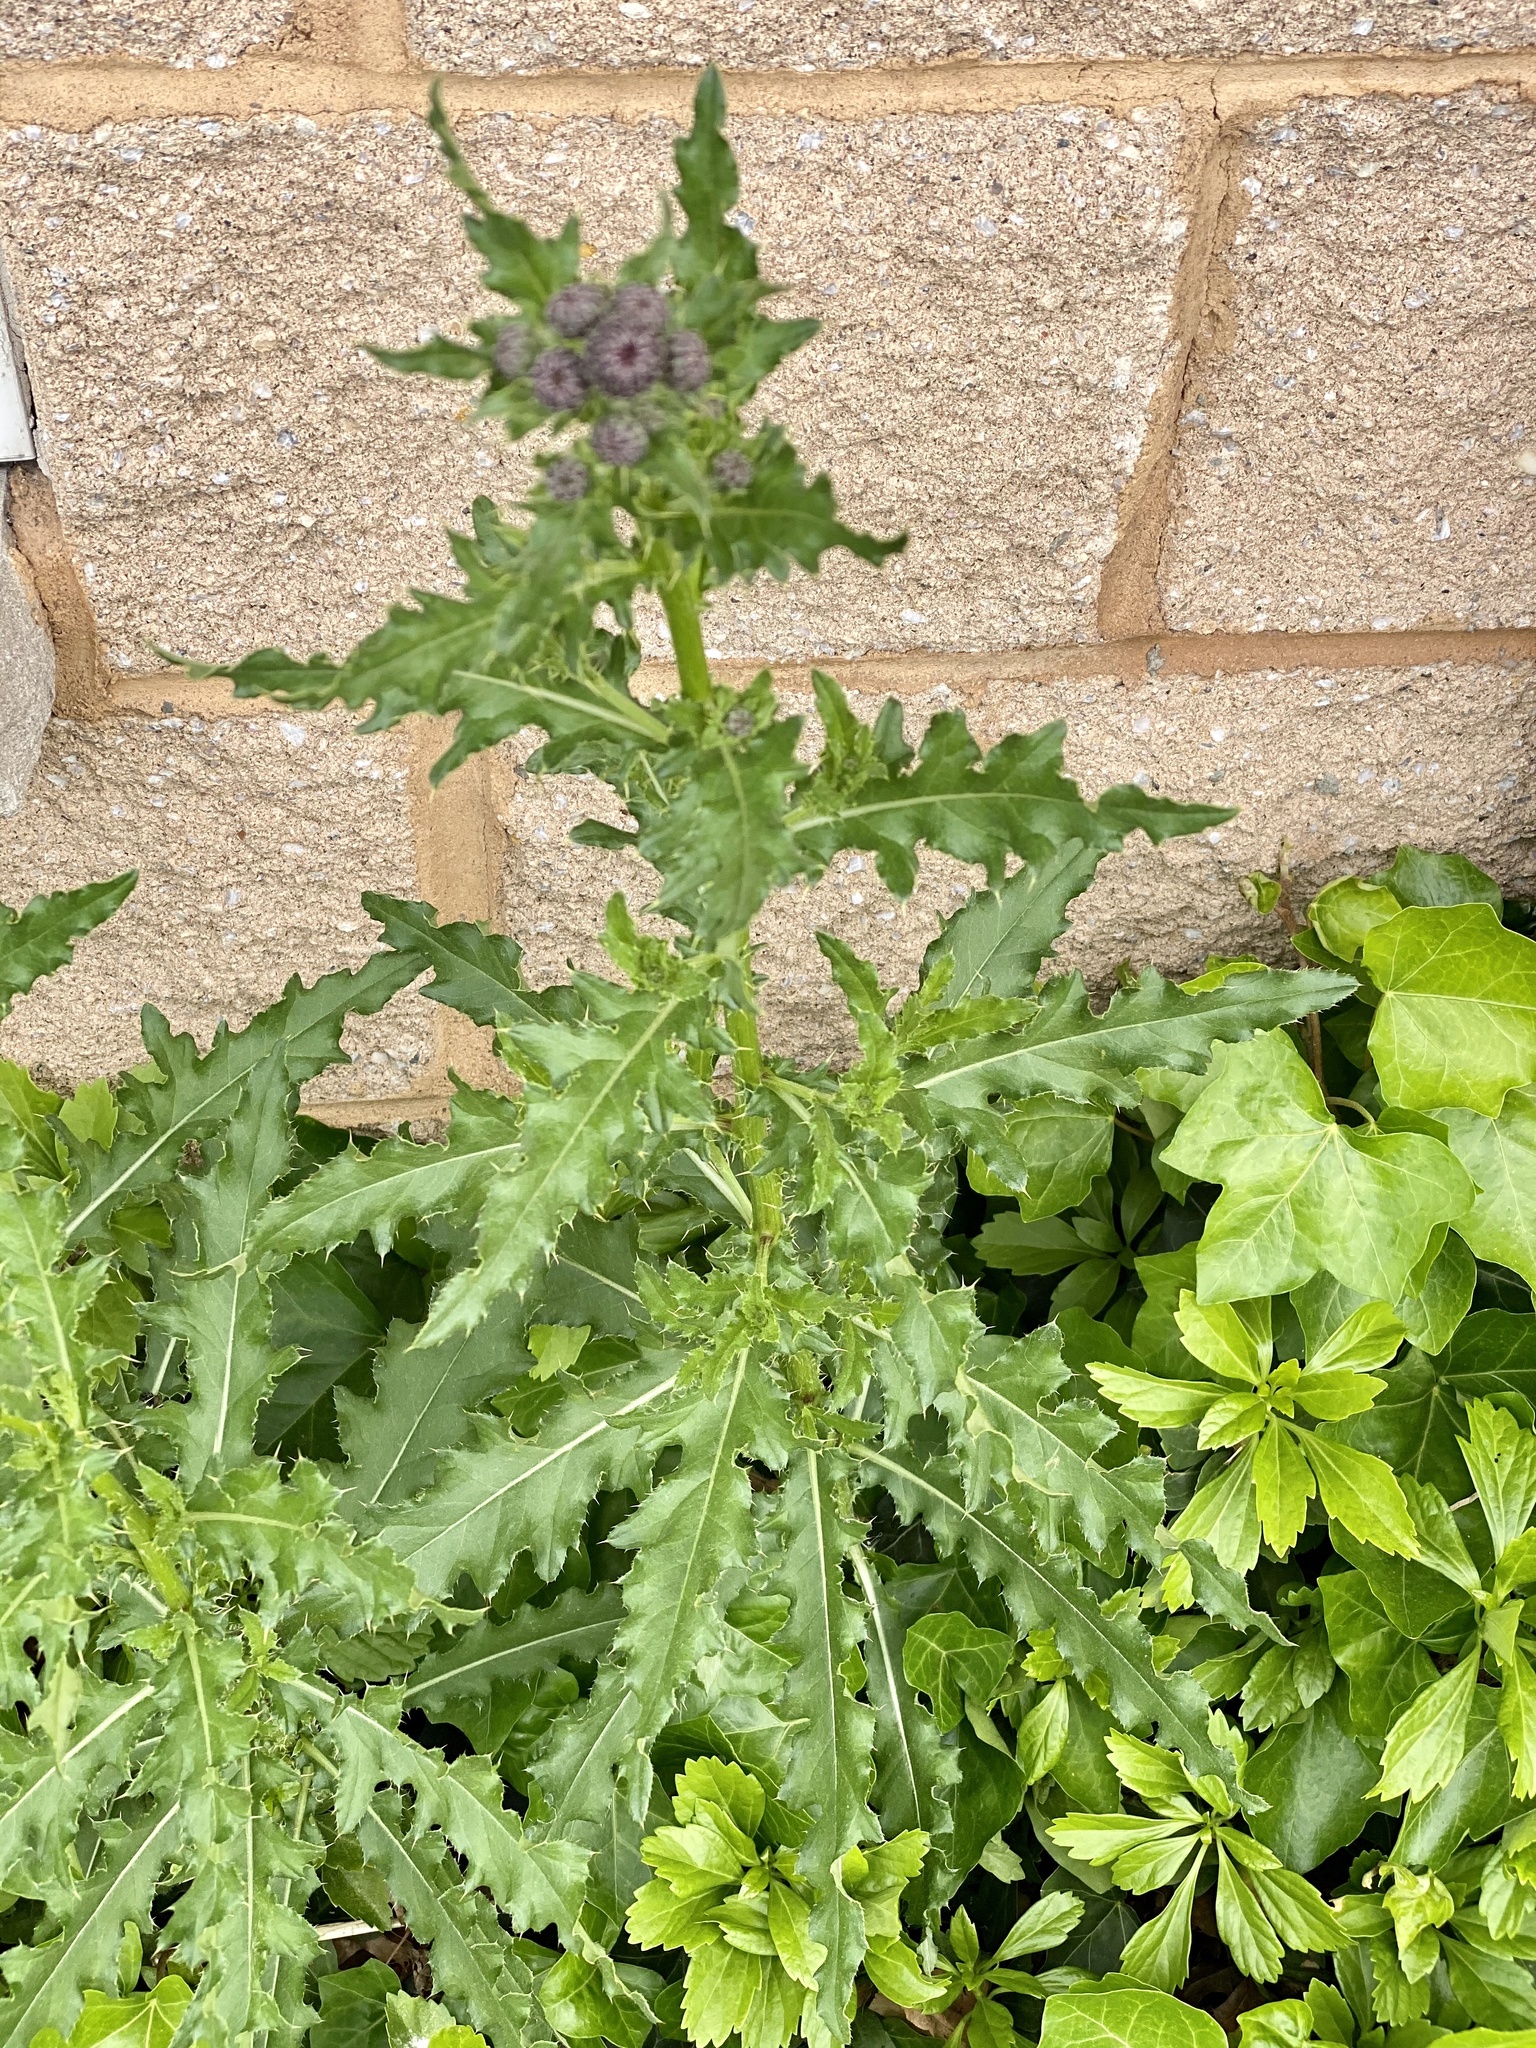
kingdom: Plantae
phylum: Tracheophyta
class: Magnoliopsida
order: Asterales
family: Asteraceae
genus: Cirsium
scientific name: Cirsium arvense
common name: Creeping thistle
